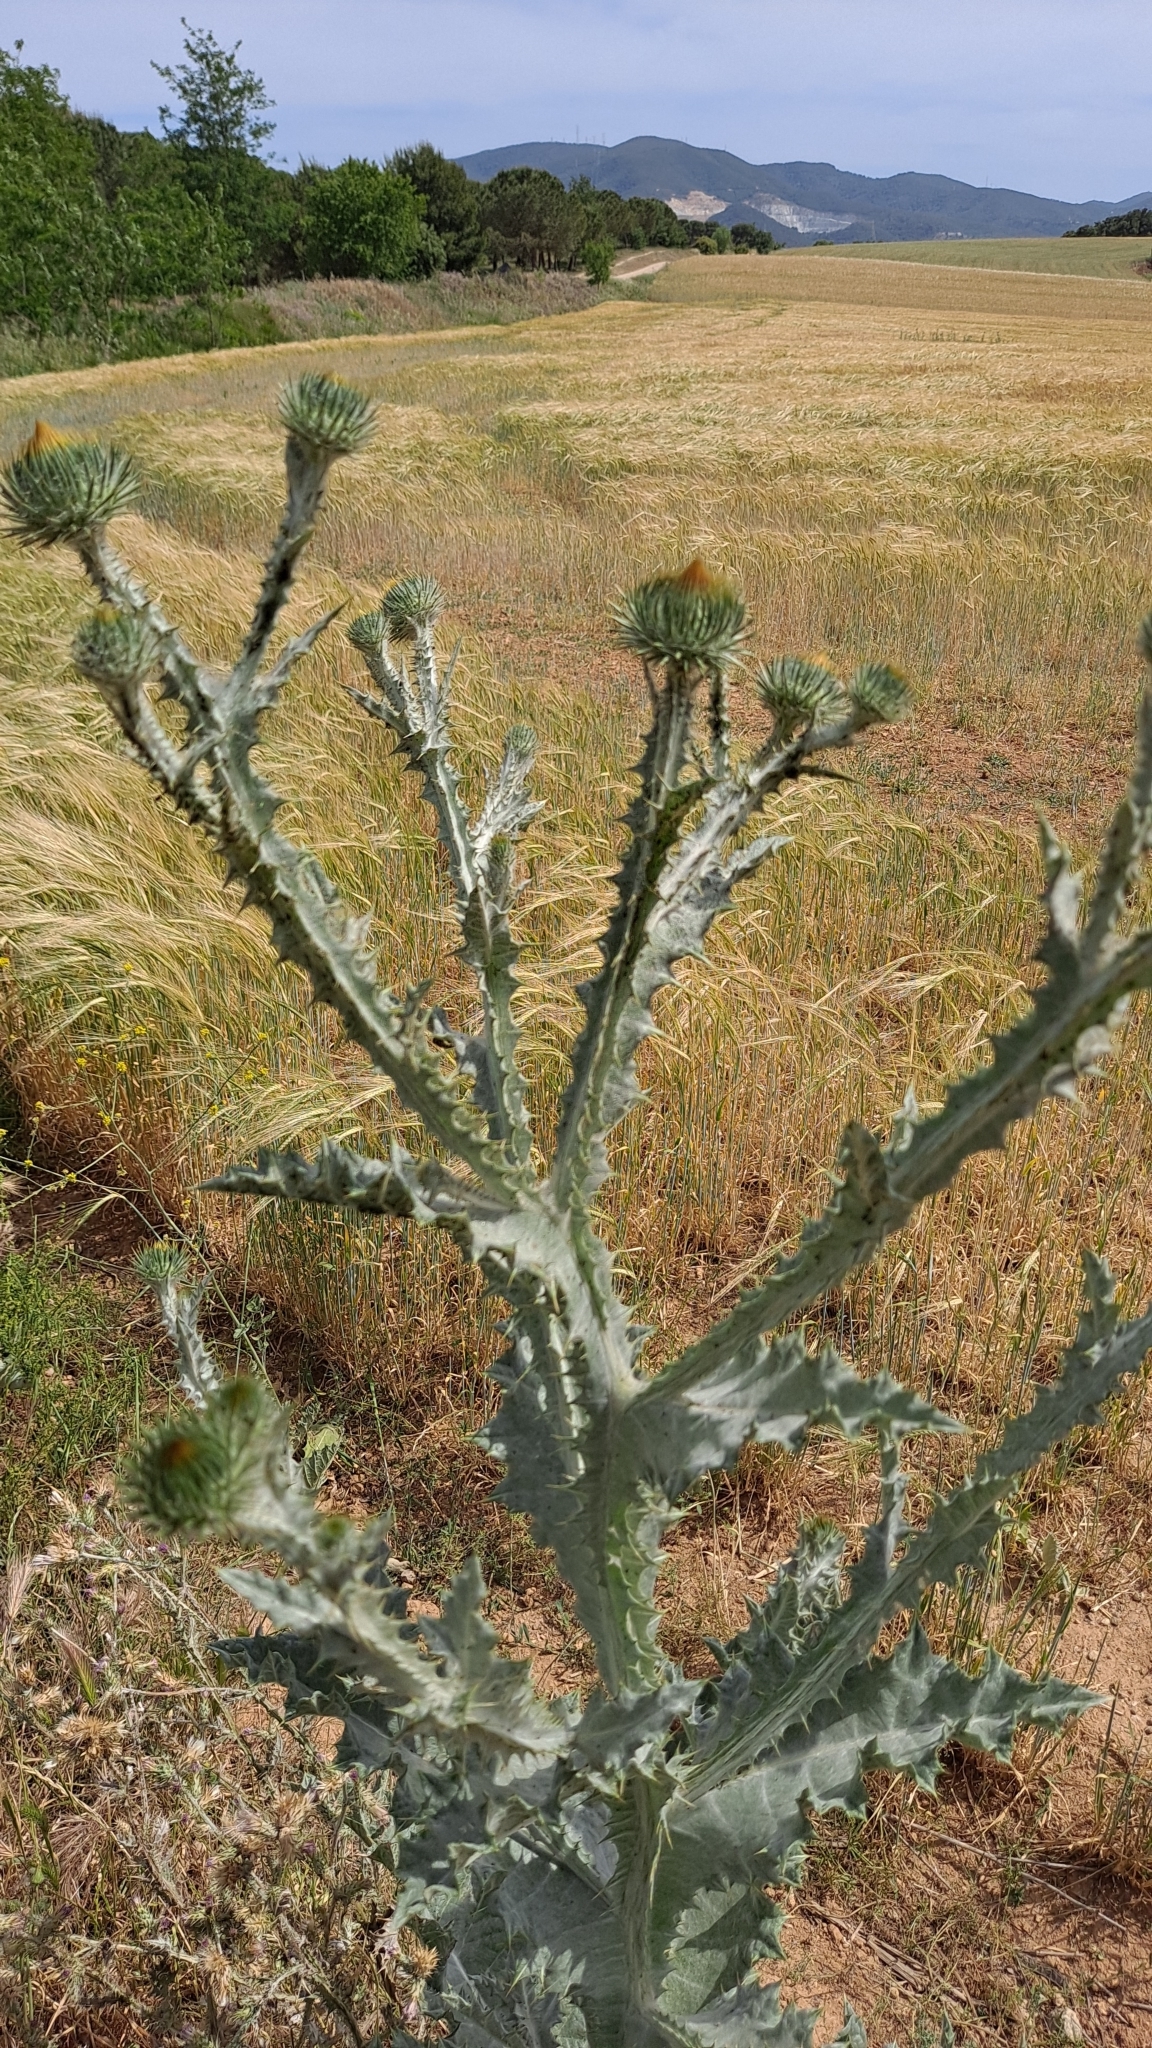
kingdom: Plantae
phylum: Tracheophyta
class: Magnoliopsida
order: Asterales
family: Asteraceae
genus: Onopordum
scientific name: Onopordum acanthium
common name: Scotch thistle
